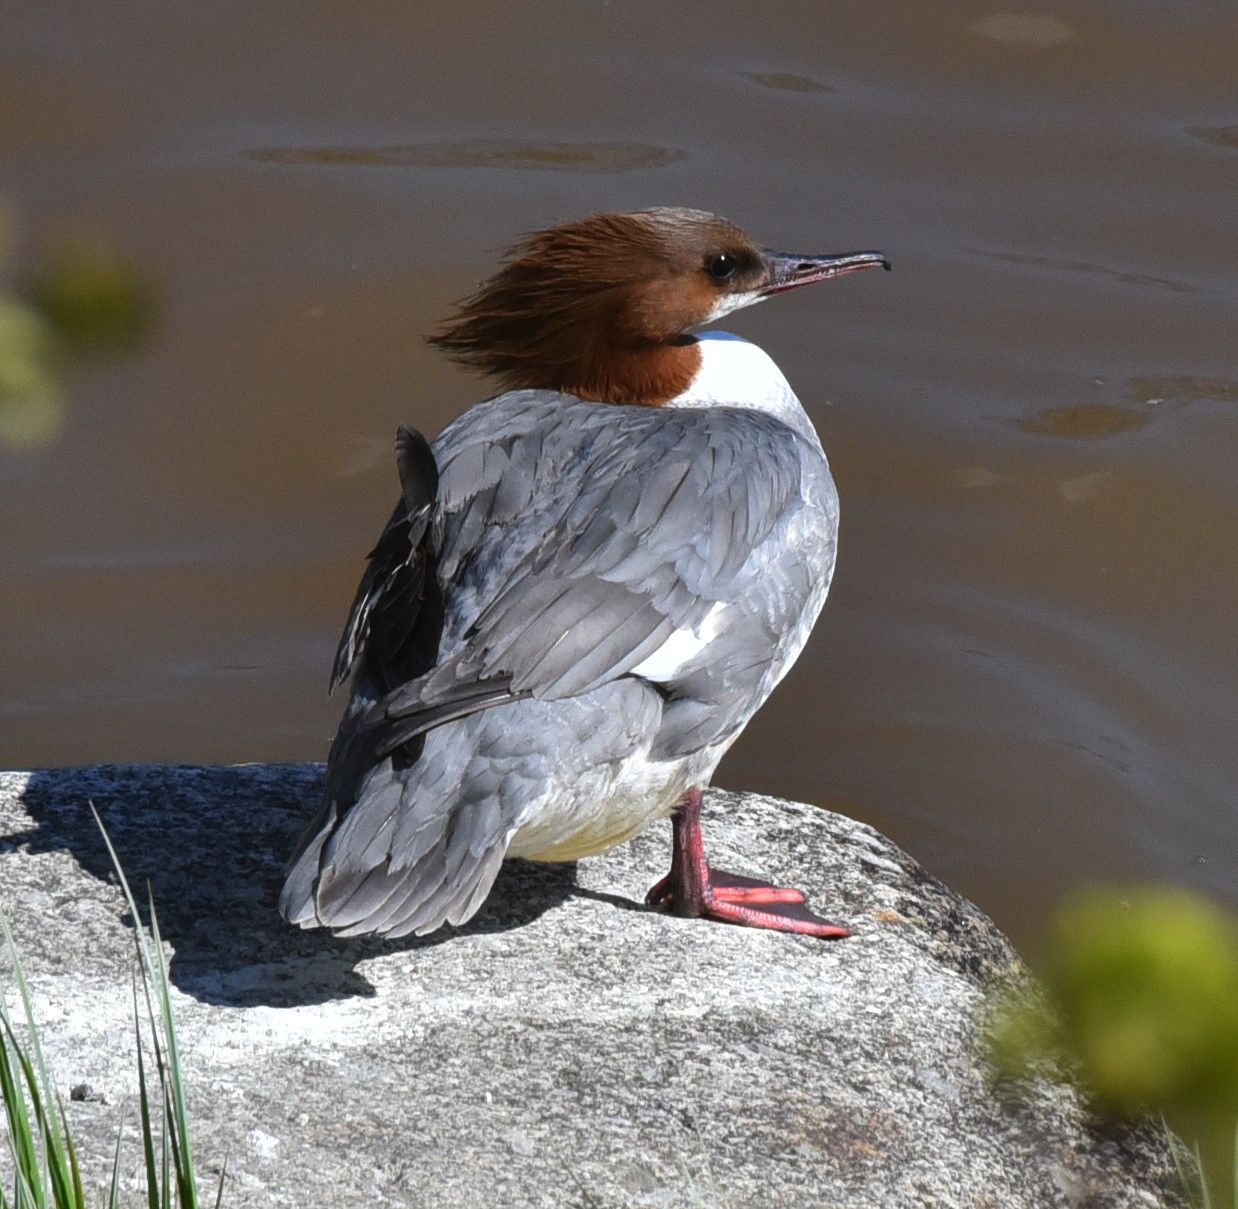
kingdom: Animalia
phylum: Chordata
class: Aves
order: Anseriformes
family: Anatidae
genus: Mergus
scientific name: Mergus merganser
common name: Common merganser
